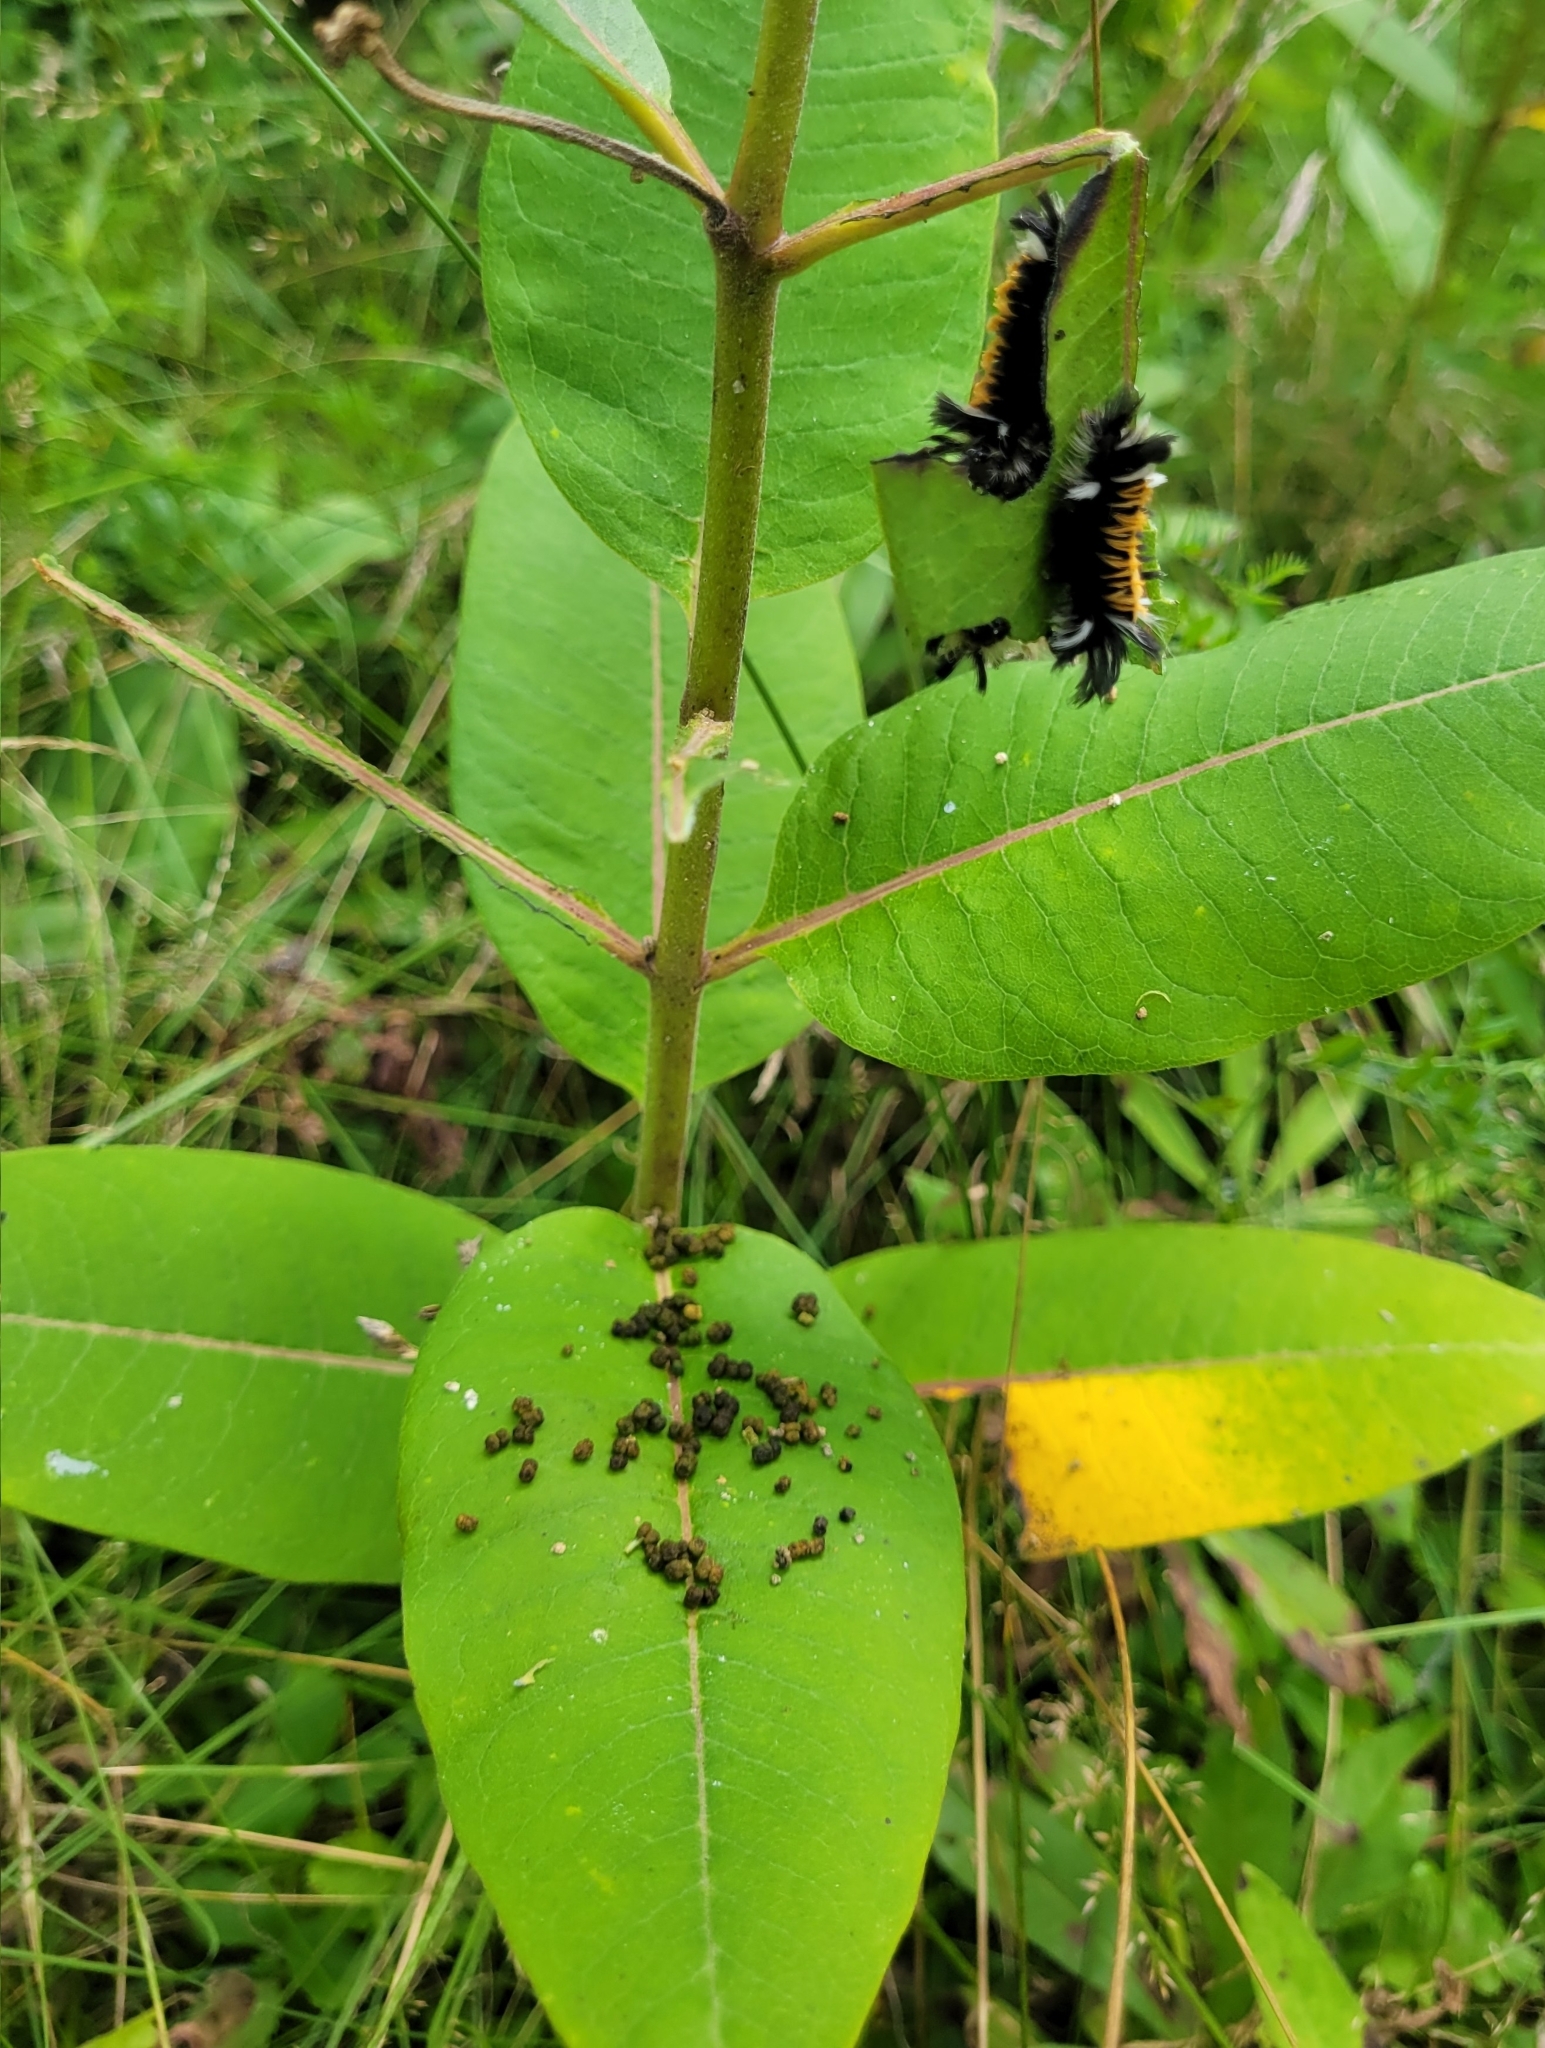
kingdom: Animalia
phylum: Arthropoda
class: Insecta
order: Lepidoptera
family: Erebidae
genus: Euchaetes
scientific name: Euchaetes egle
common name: Milkweed tussock moth
